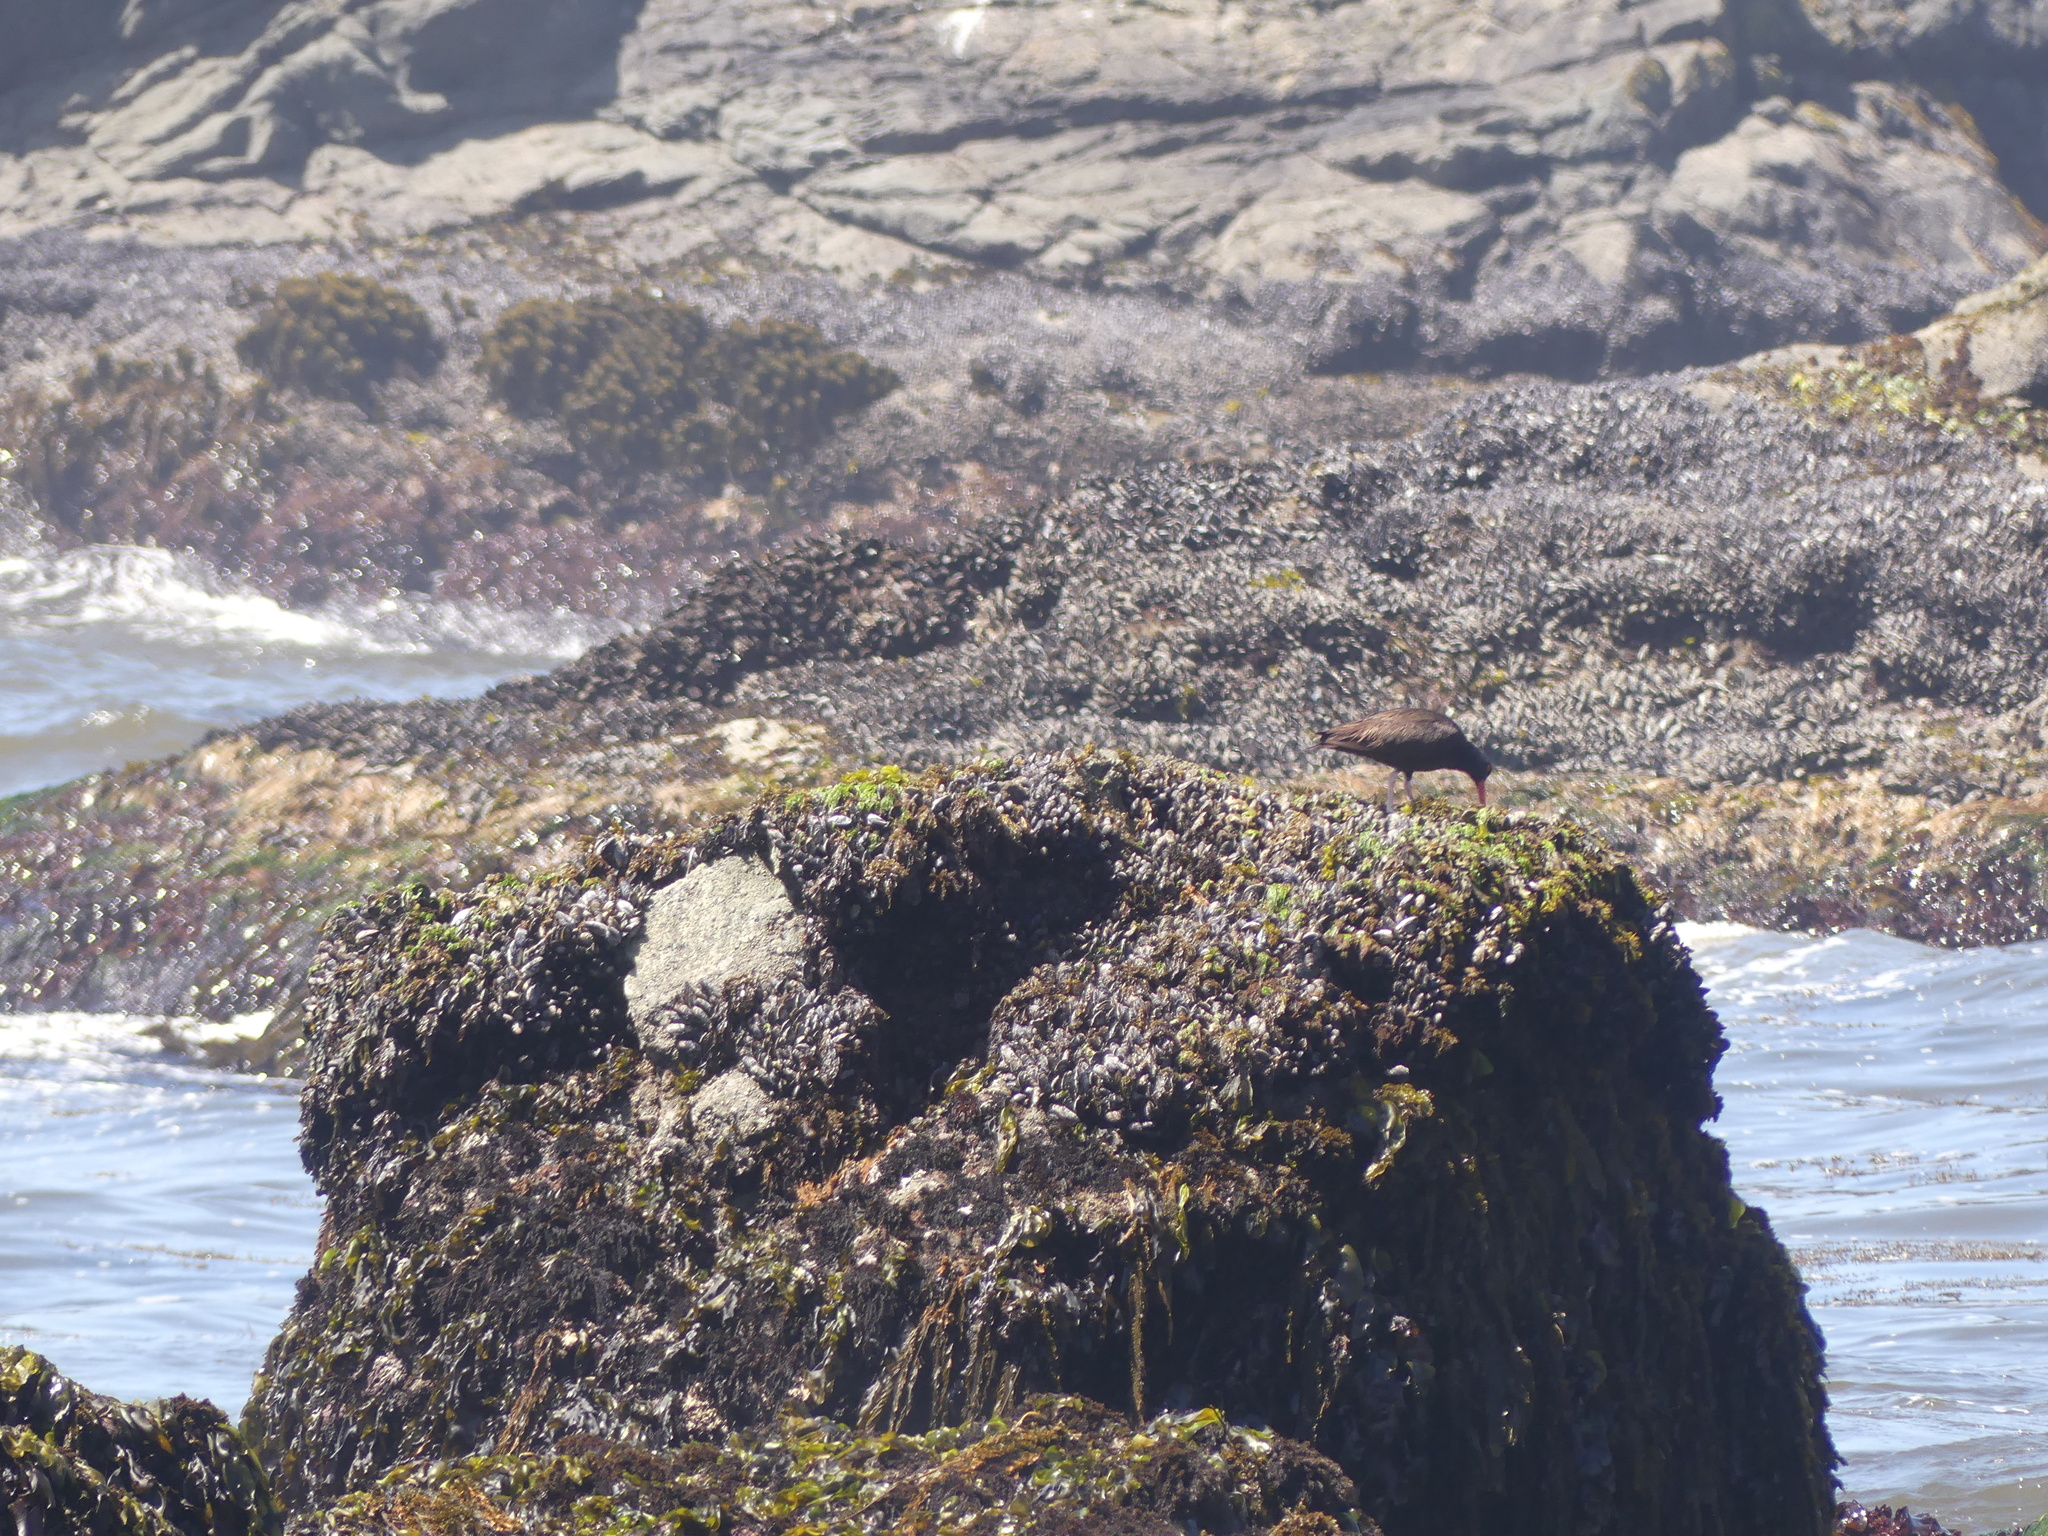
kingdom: Animalia
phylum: Chordata
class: Aves
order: Charadriiformes
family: Haematopodidae
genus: Haematopus
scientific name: Haematopus bachmani
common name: Black oystercatcher
